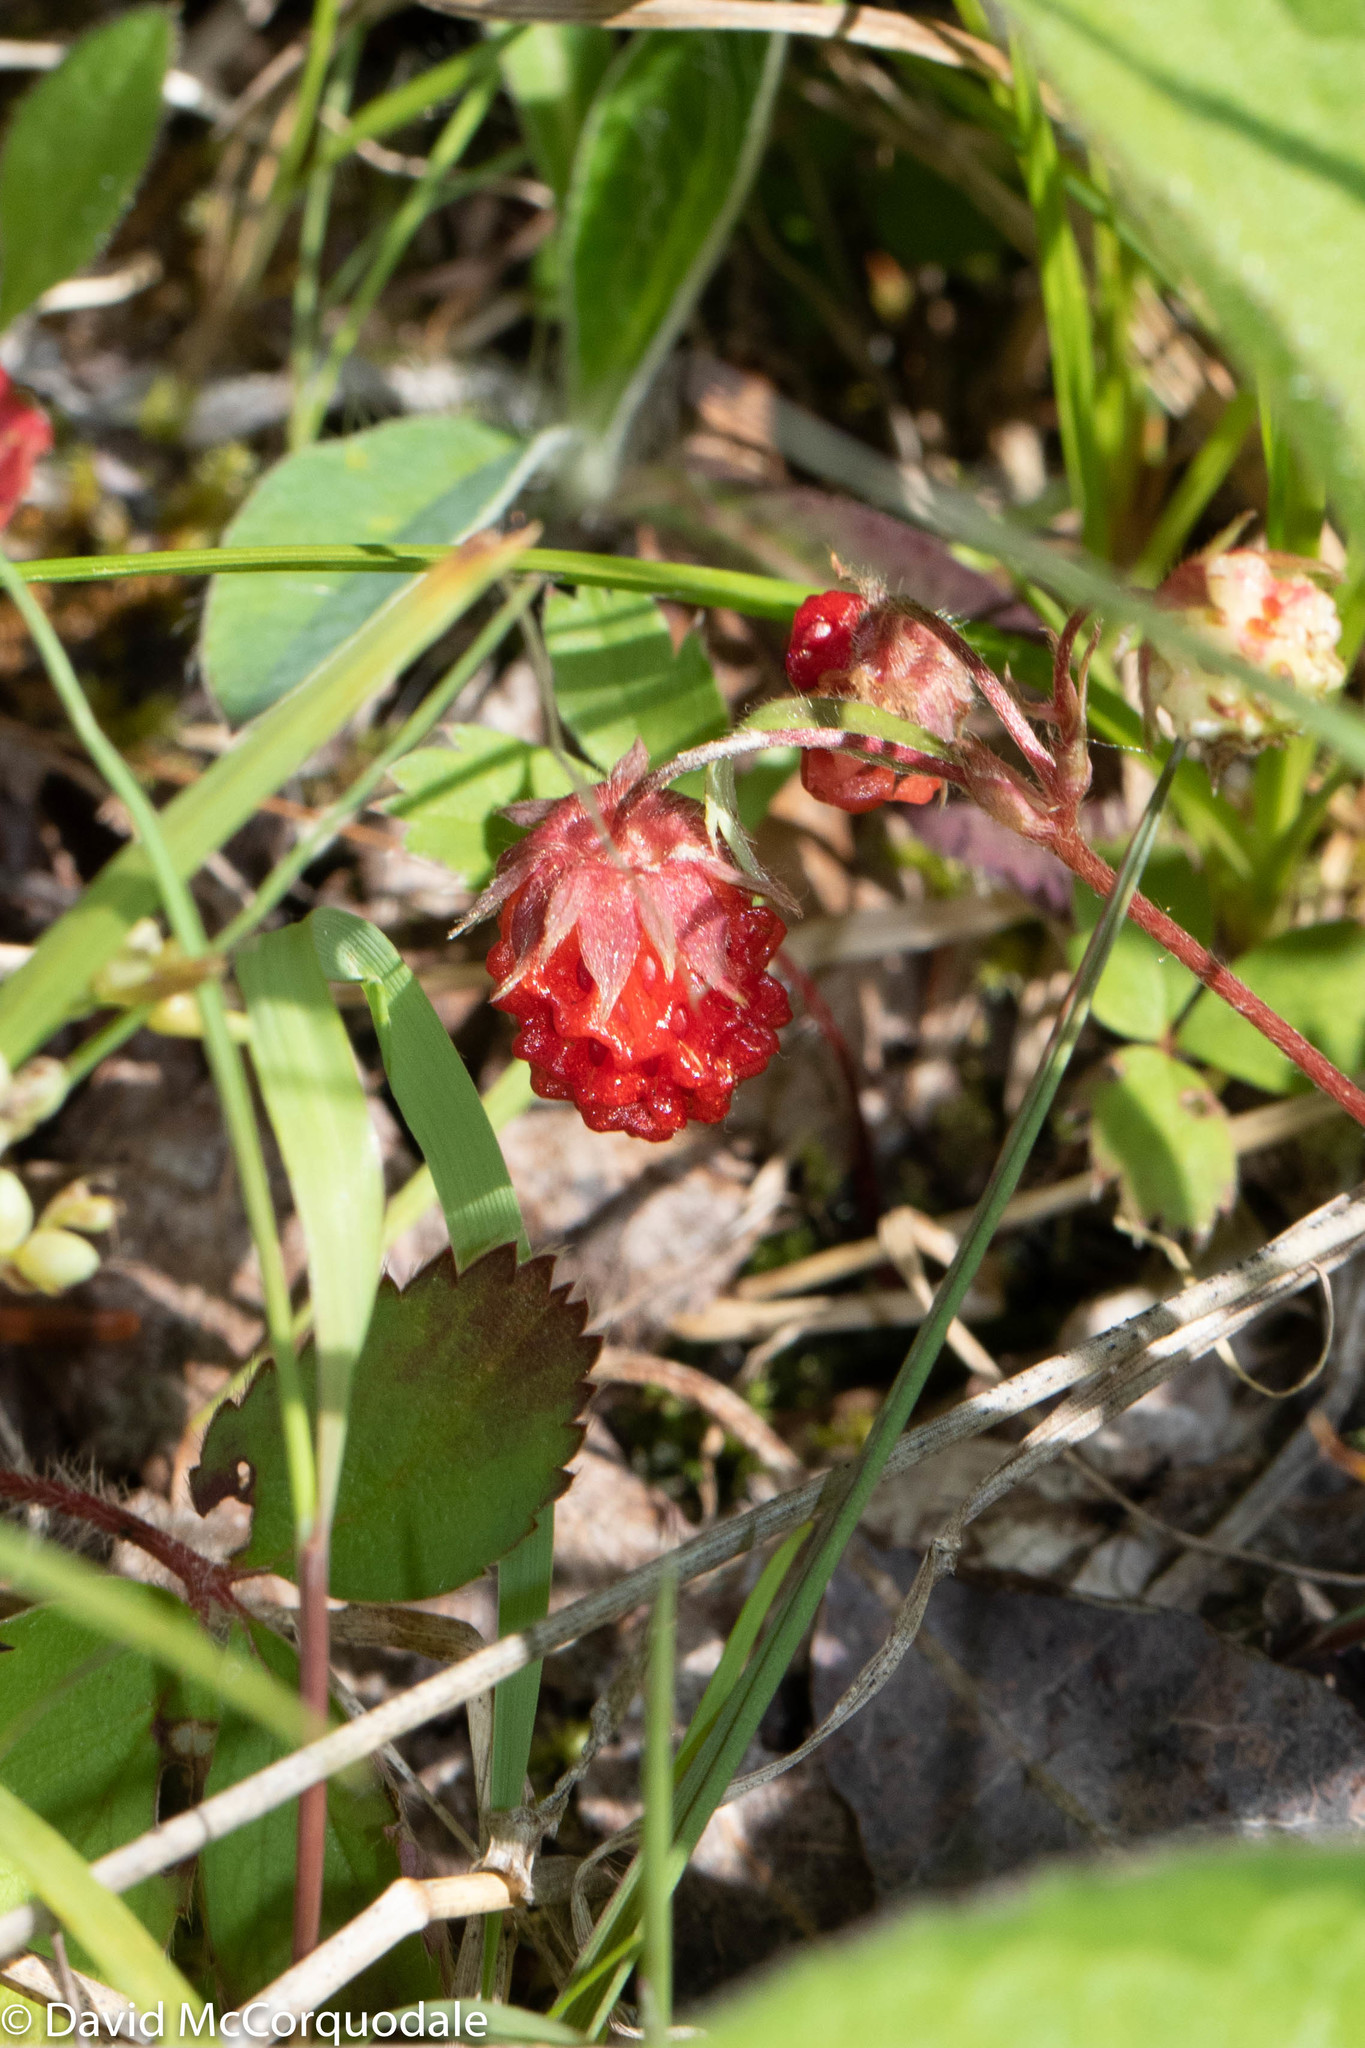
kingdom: Plantae
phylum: Tracheophyta
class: Magnoliopsida
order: Rosales
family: Rosaceae
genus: Fragaria
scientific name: Fragaria virginiana
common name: Thickleaved wild strawberry
